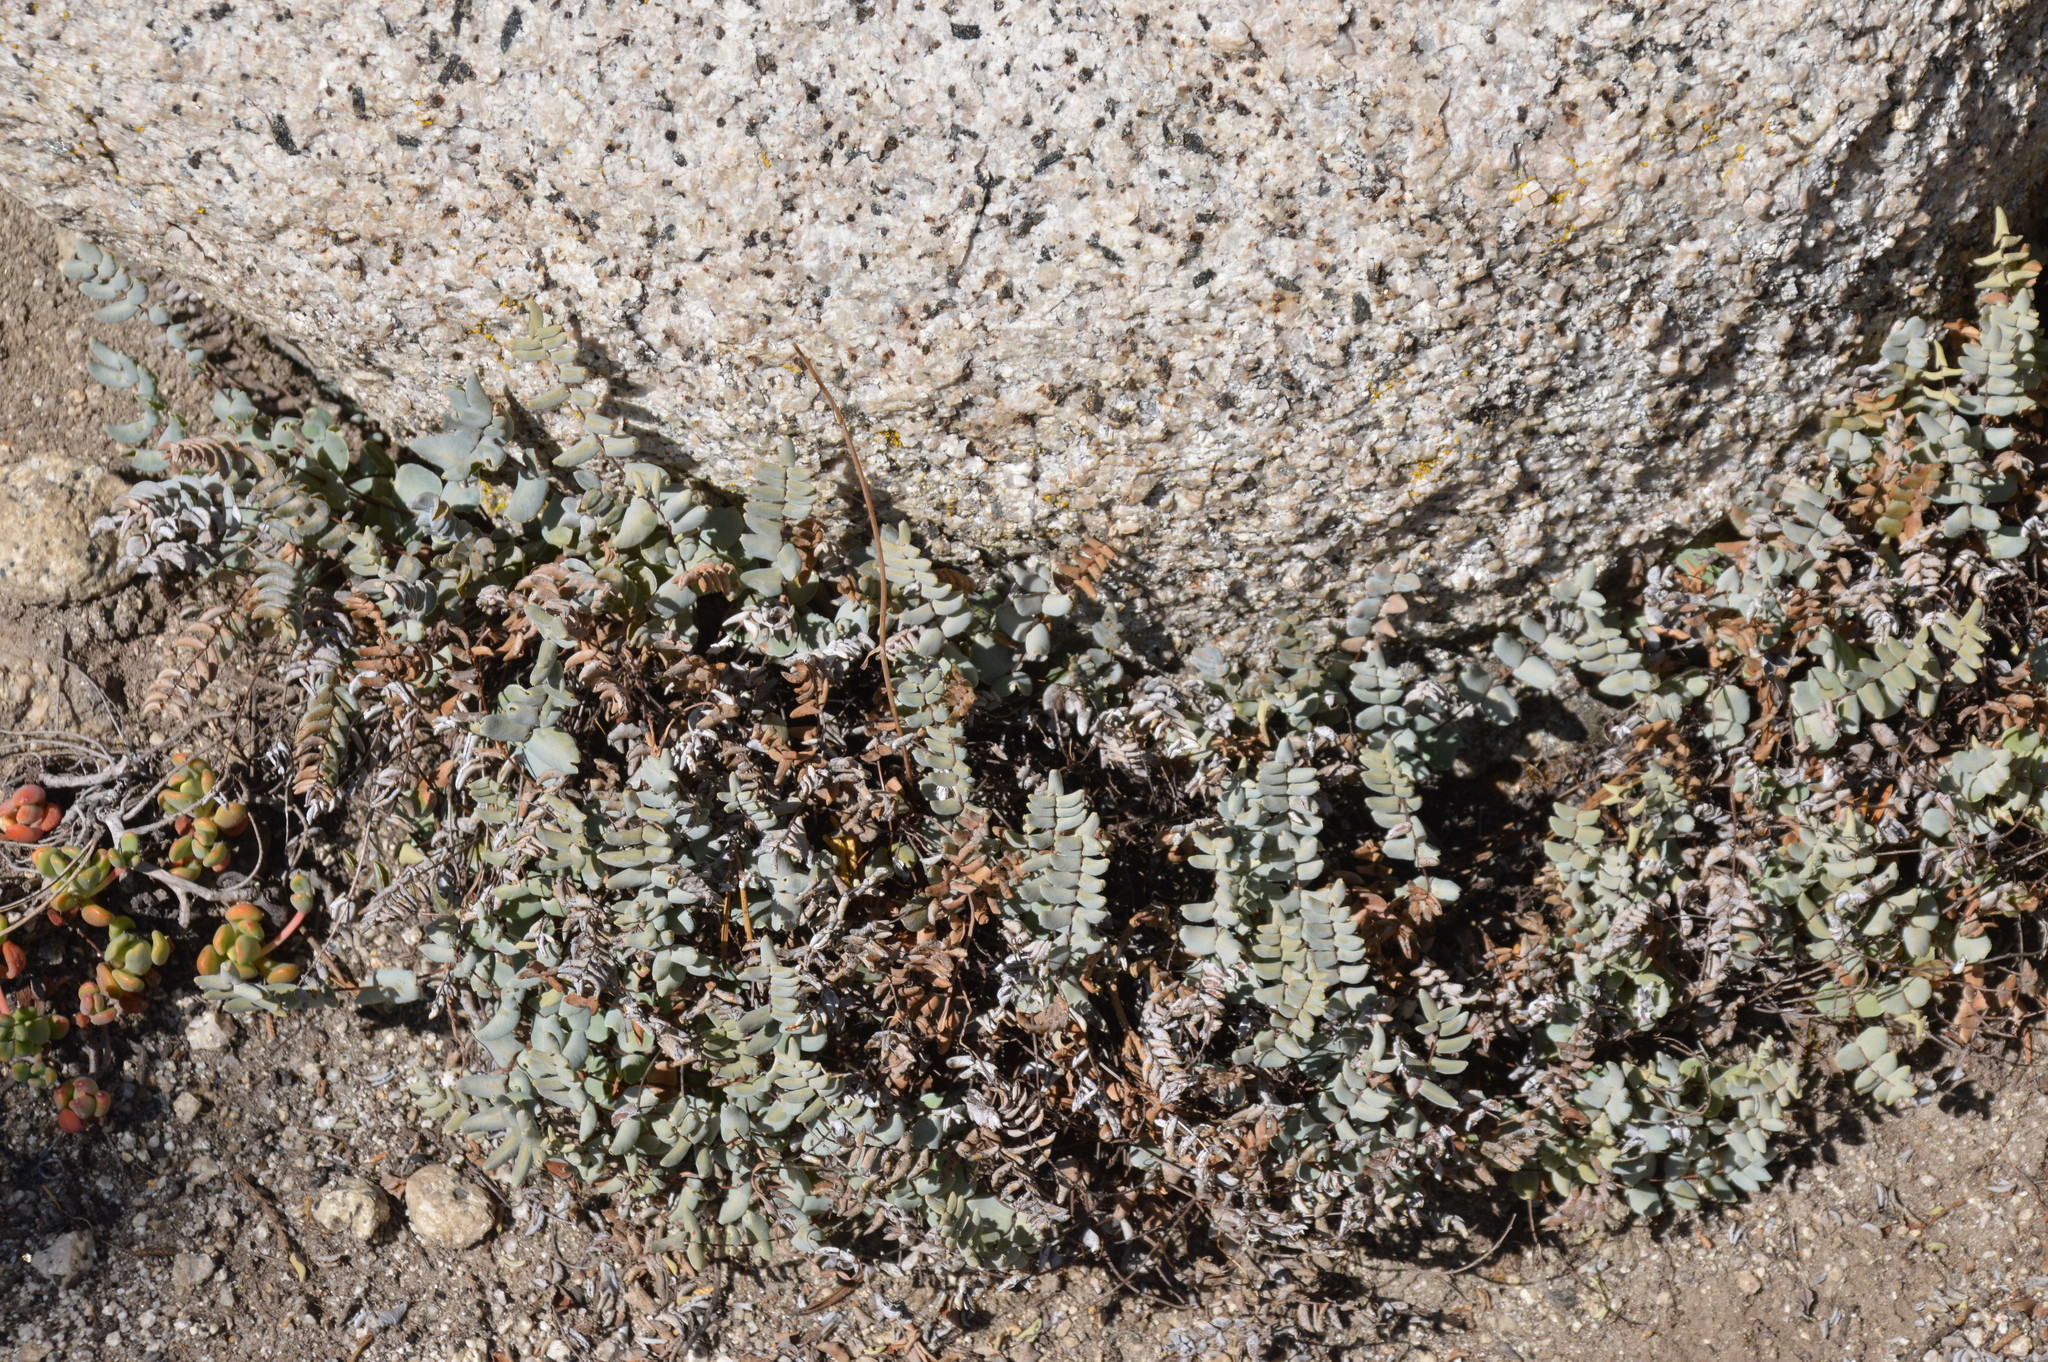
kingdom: Plantae
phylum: Tracheophyta
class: Polypodiopsida
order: Polypodiales
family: Pteridaceae
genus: Pellaea
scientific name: Pellaea bridgesii
